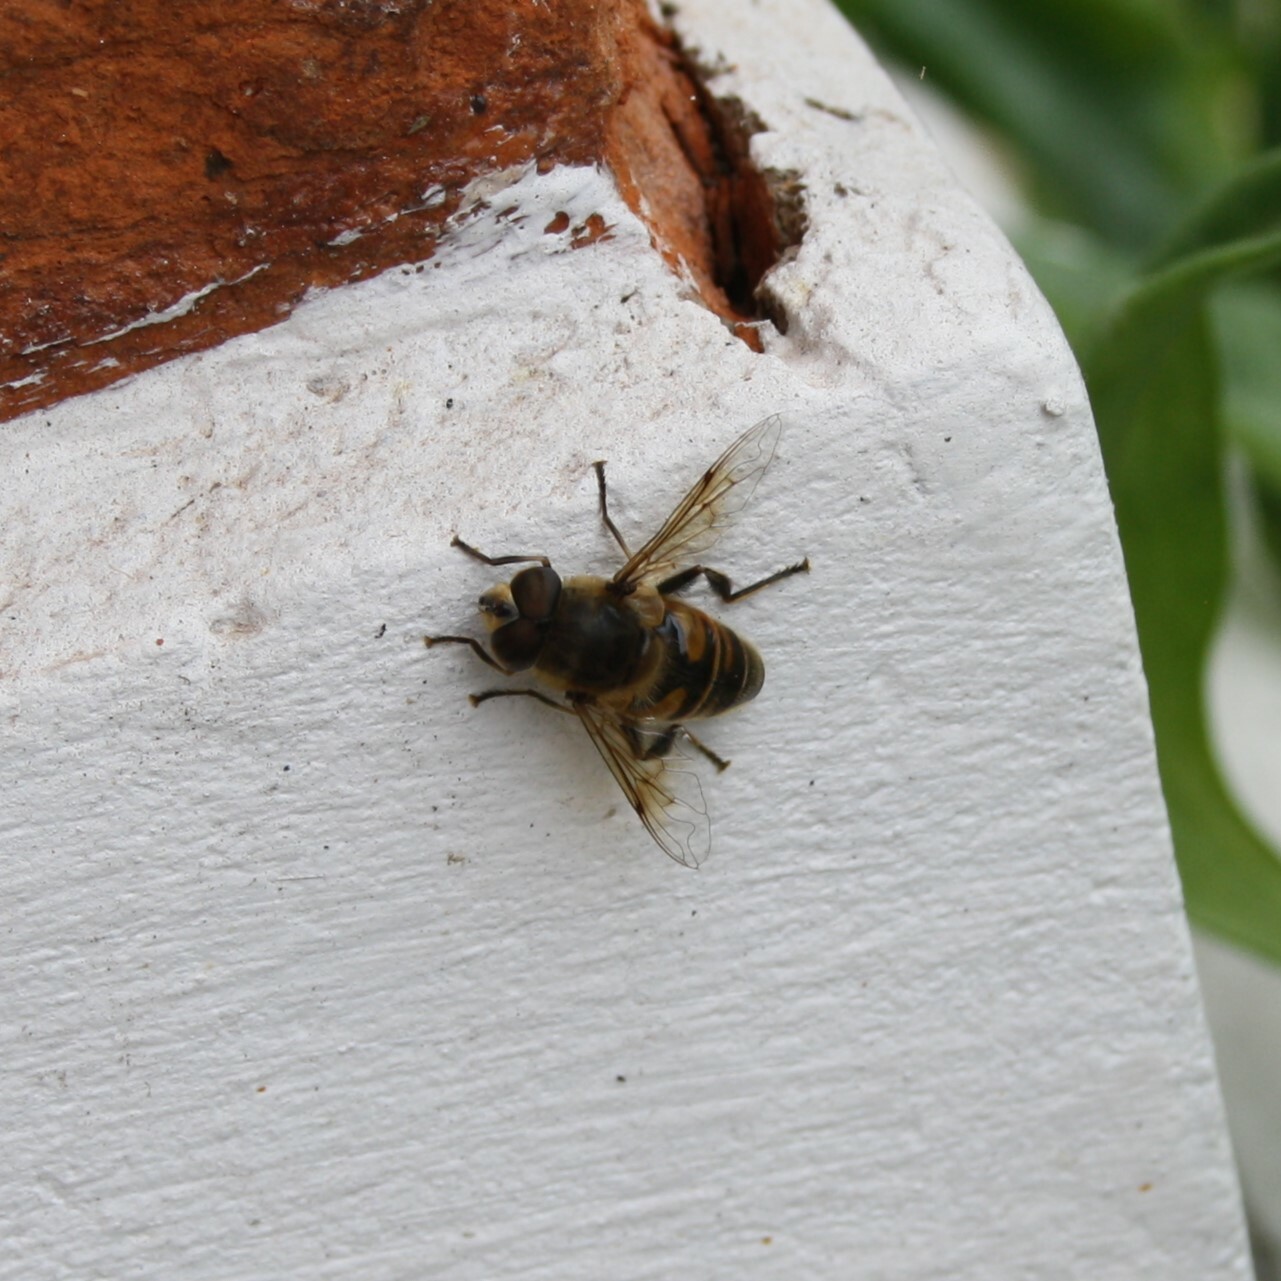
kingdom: Animalia
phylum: Arthropoda
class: Insecta
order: Diptera
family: Syrphidae
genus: Eristalis
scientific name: Eristalis tenax
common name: Drone fly
